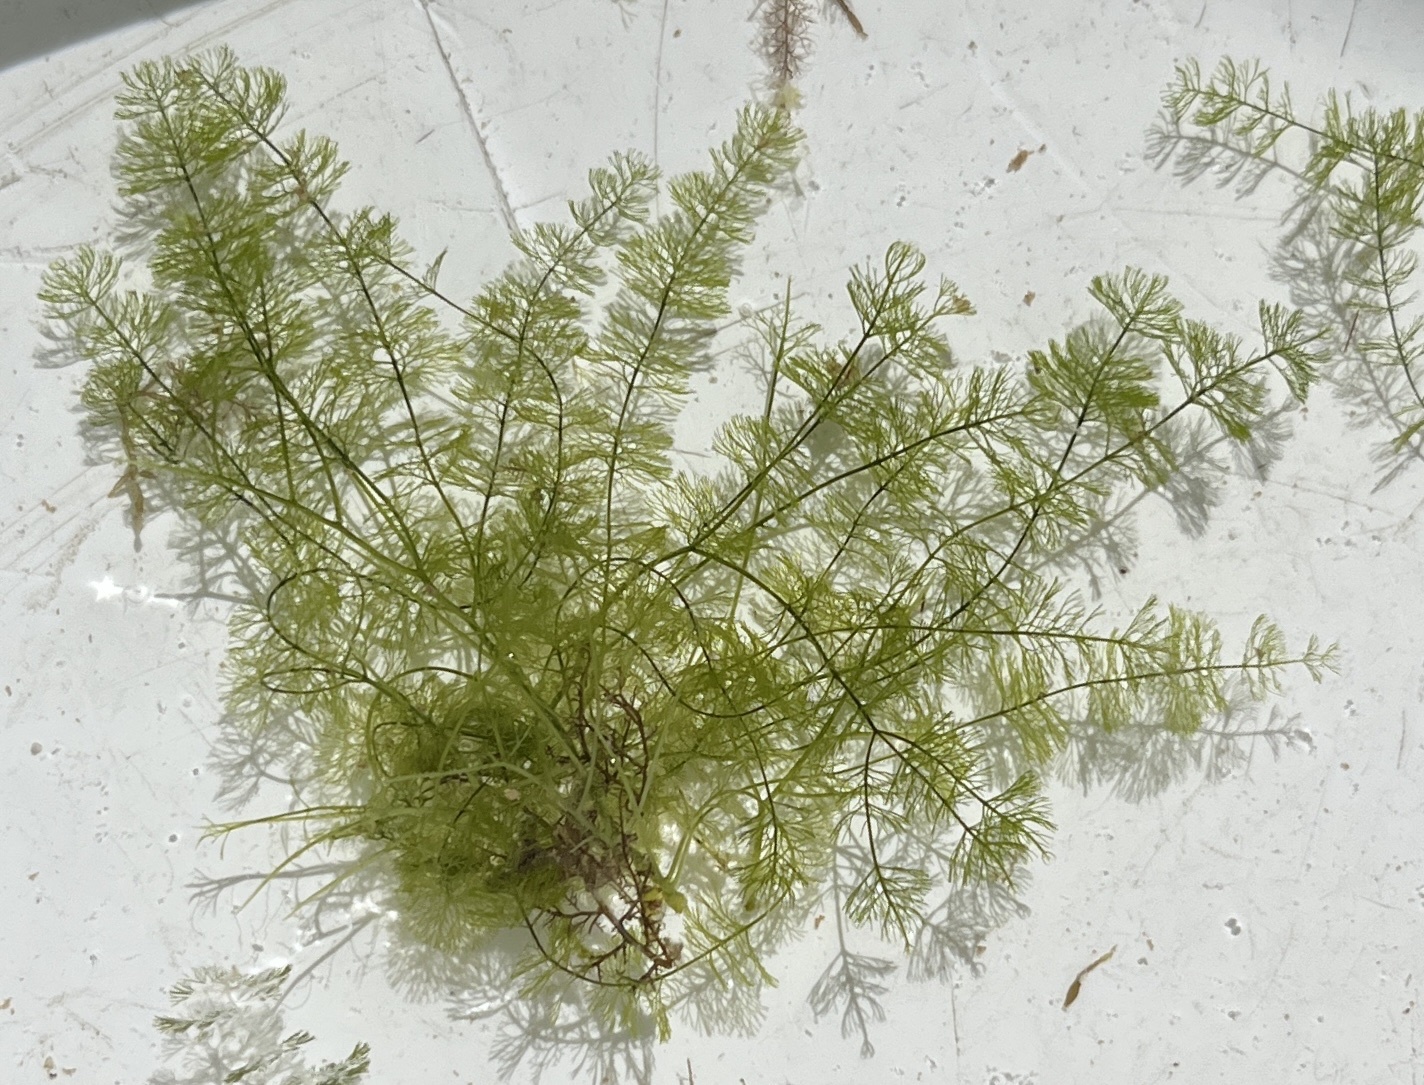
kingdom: Plantae
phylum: Chlorophyta
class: Ulvophyceae
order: Bryopsidales
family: Caulerpaceae
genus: Caulerpa
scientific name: Caulerpa verticillata
